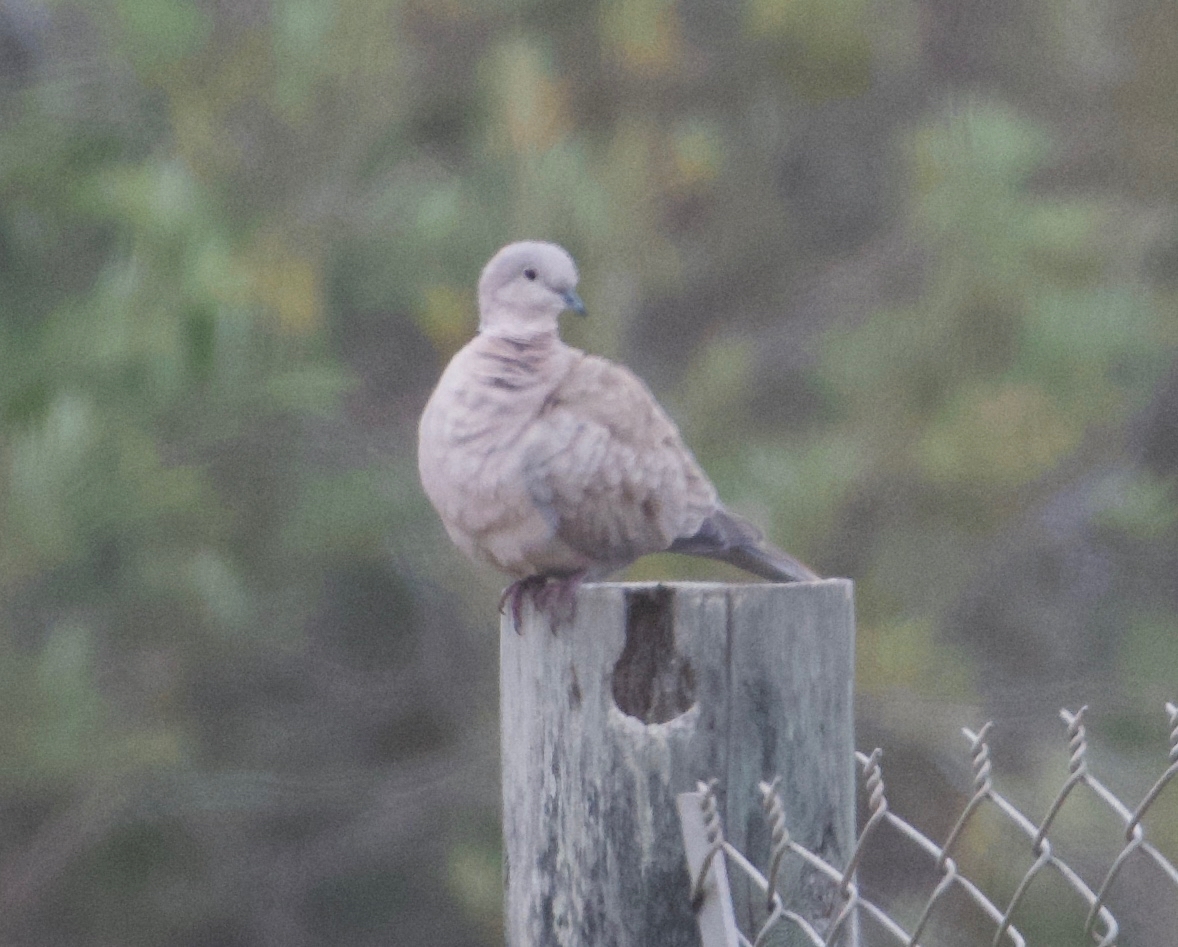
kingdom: Animalia
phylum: Chordata
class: Aves
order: Columbiformes
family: Columbidae
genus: Streptopelia
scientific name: Streptopelia decaocto
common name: Eurasian collared dove
